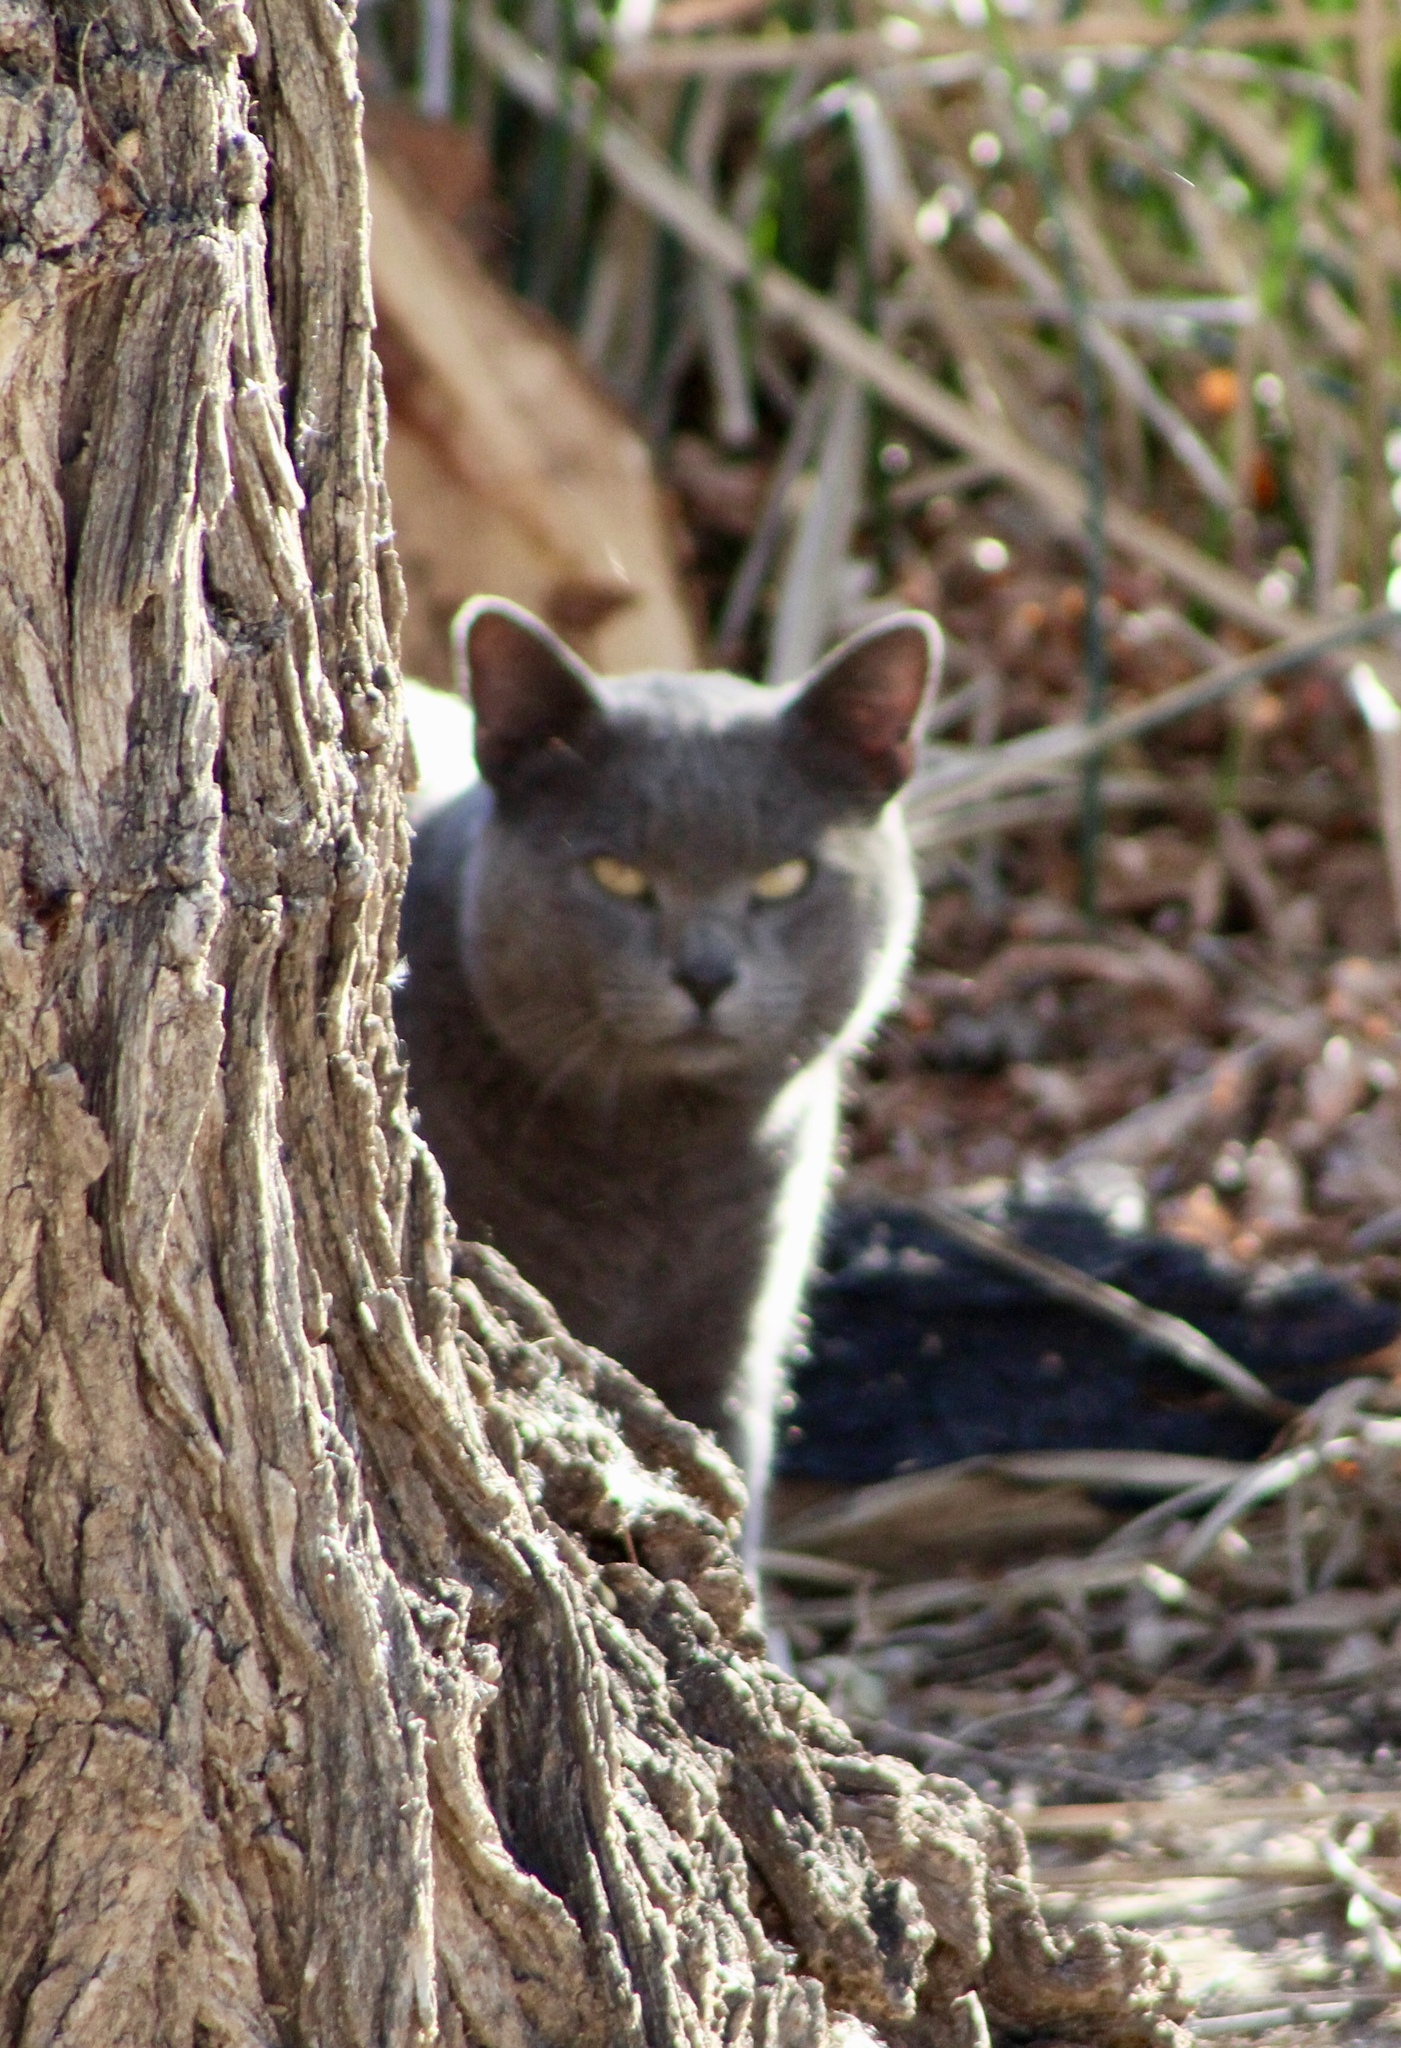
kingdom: Animalia
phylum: Chordata
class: Mammalia
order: Carnivora
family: Felidae
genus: Felis
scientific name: Felis catus
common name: Domestic cat
